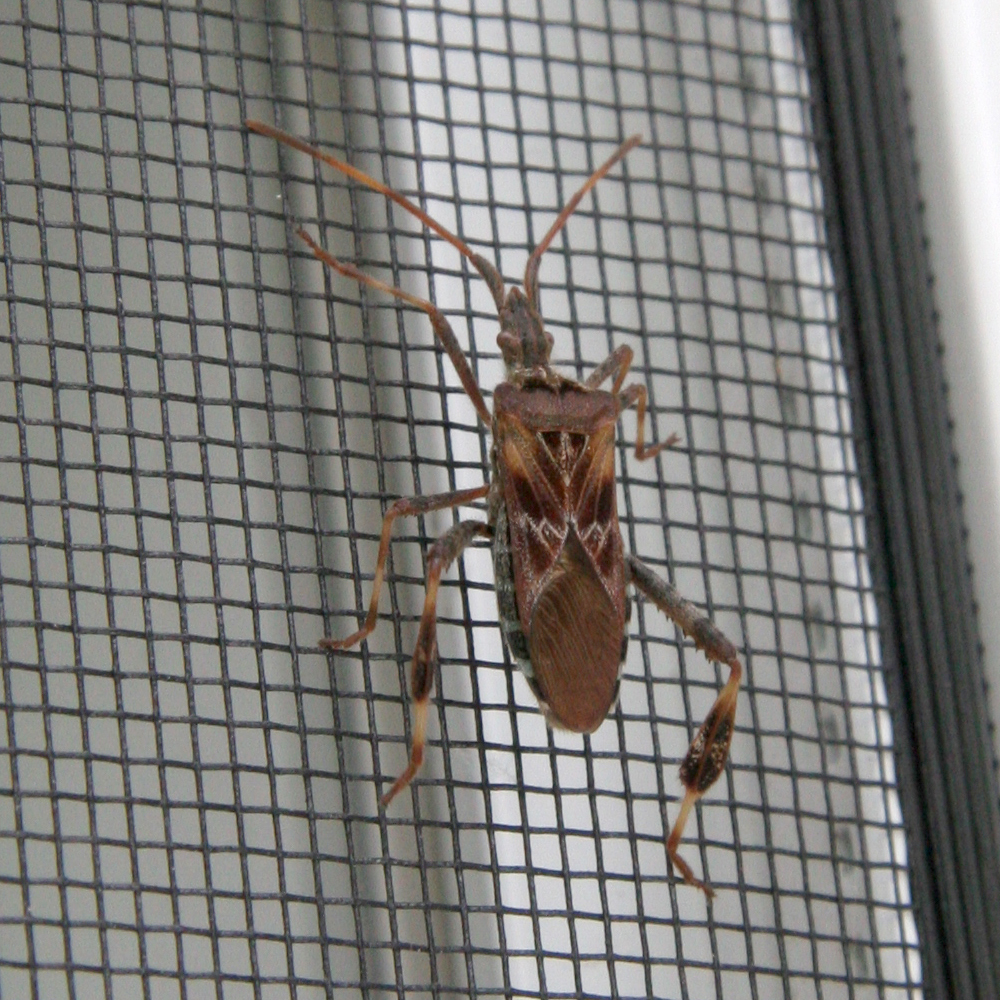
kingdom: Animalia
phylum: Arthropoda
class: Insecta
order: Hemiptera
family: Coreidae
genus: Leptoglossus
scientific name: Leptoglossus occidentalis
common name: Western conifer-seed bug
